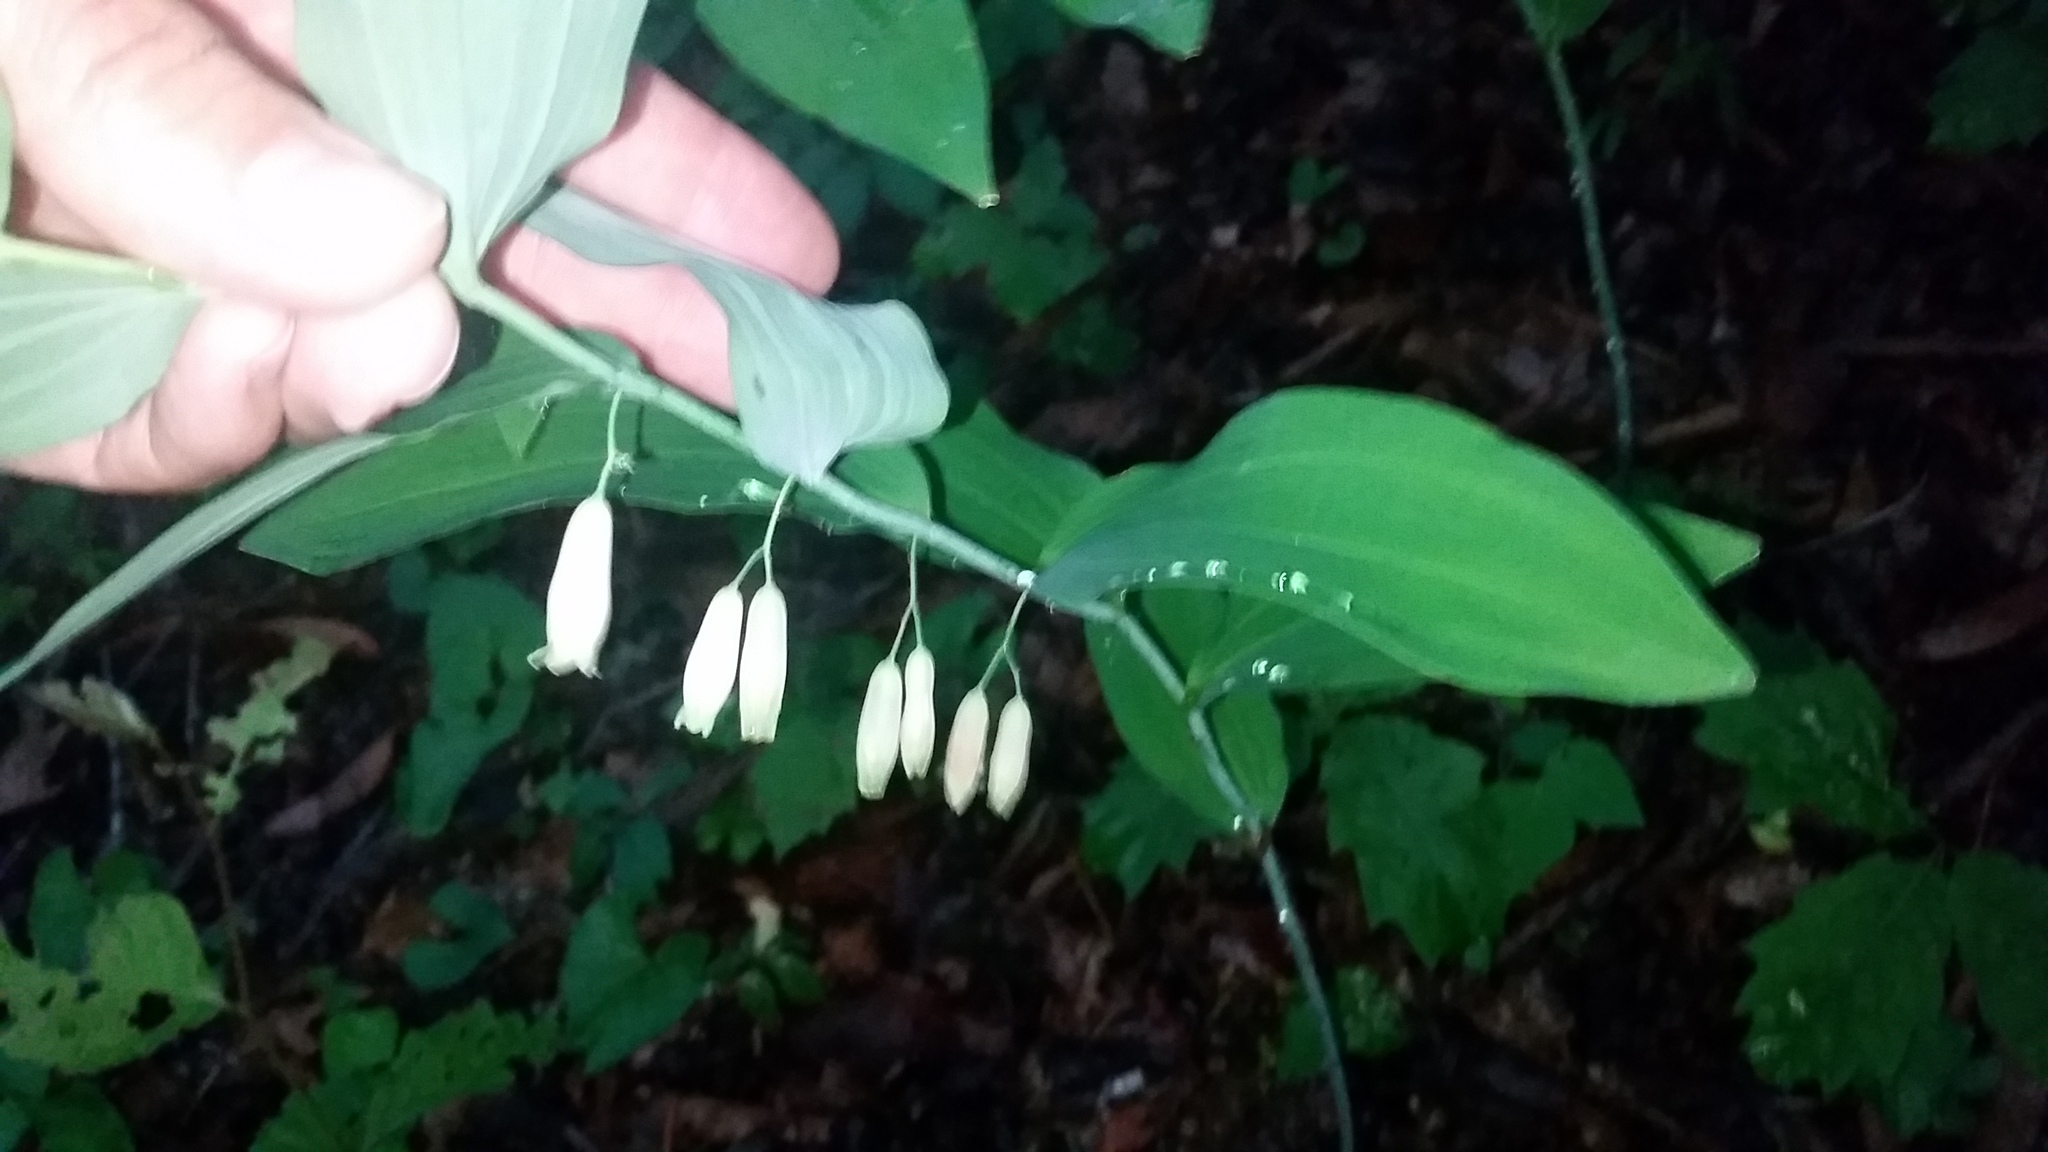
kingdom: Plantae
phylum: Tracheophyta
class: Liliopsida
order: Asparagales
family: Asparagaceae
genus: Polygonatum
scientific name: Polygonatum biflorum
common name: American solomon's-seal
